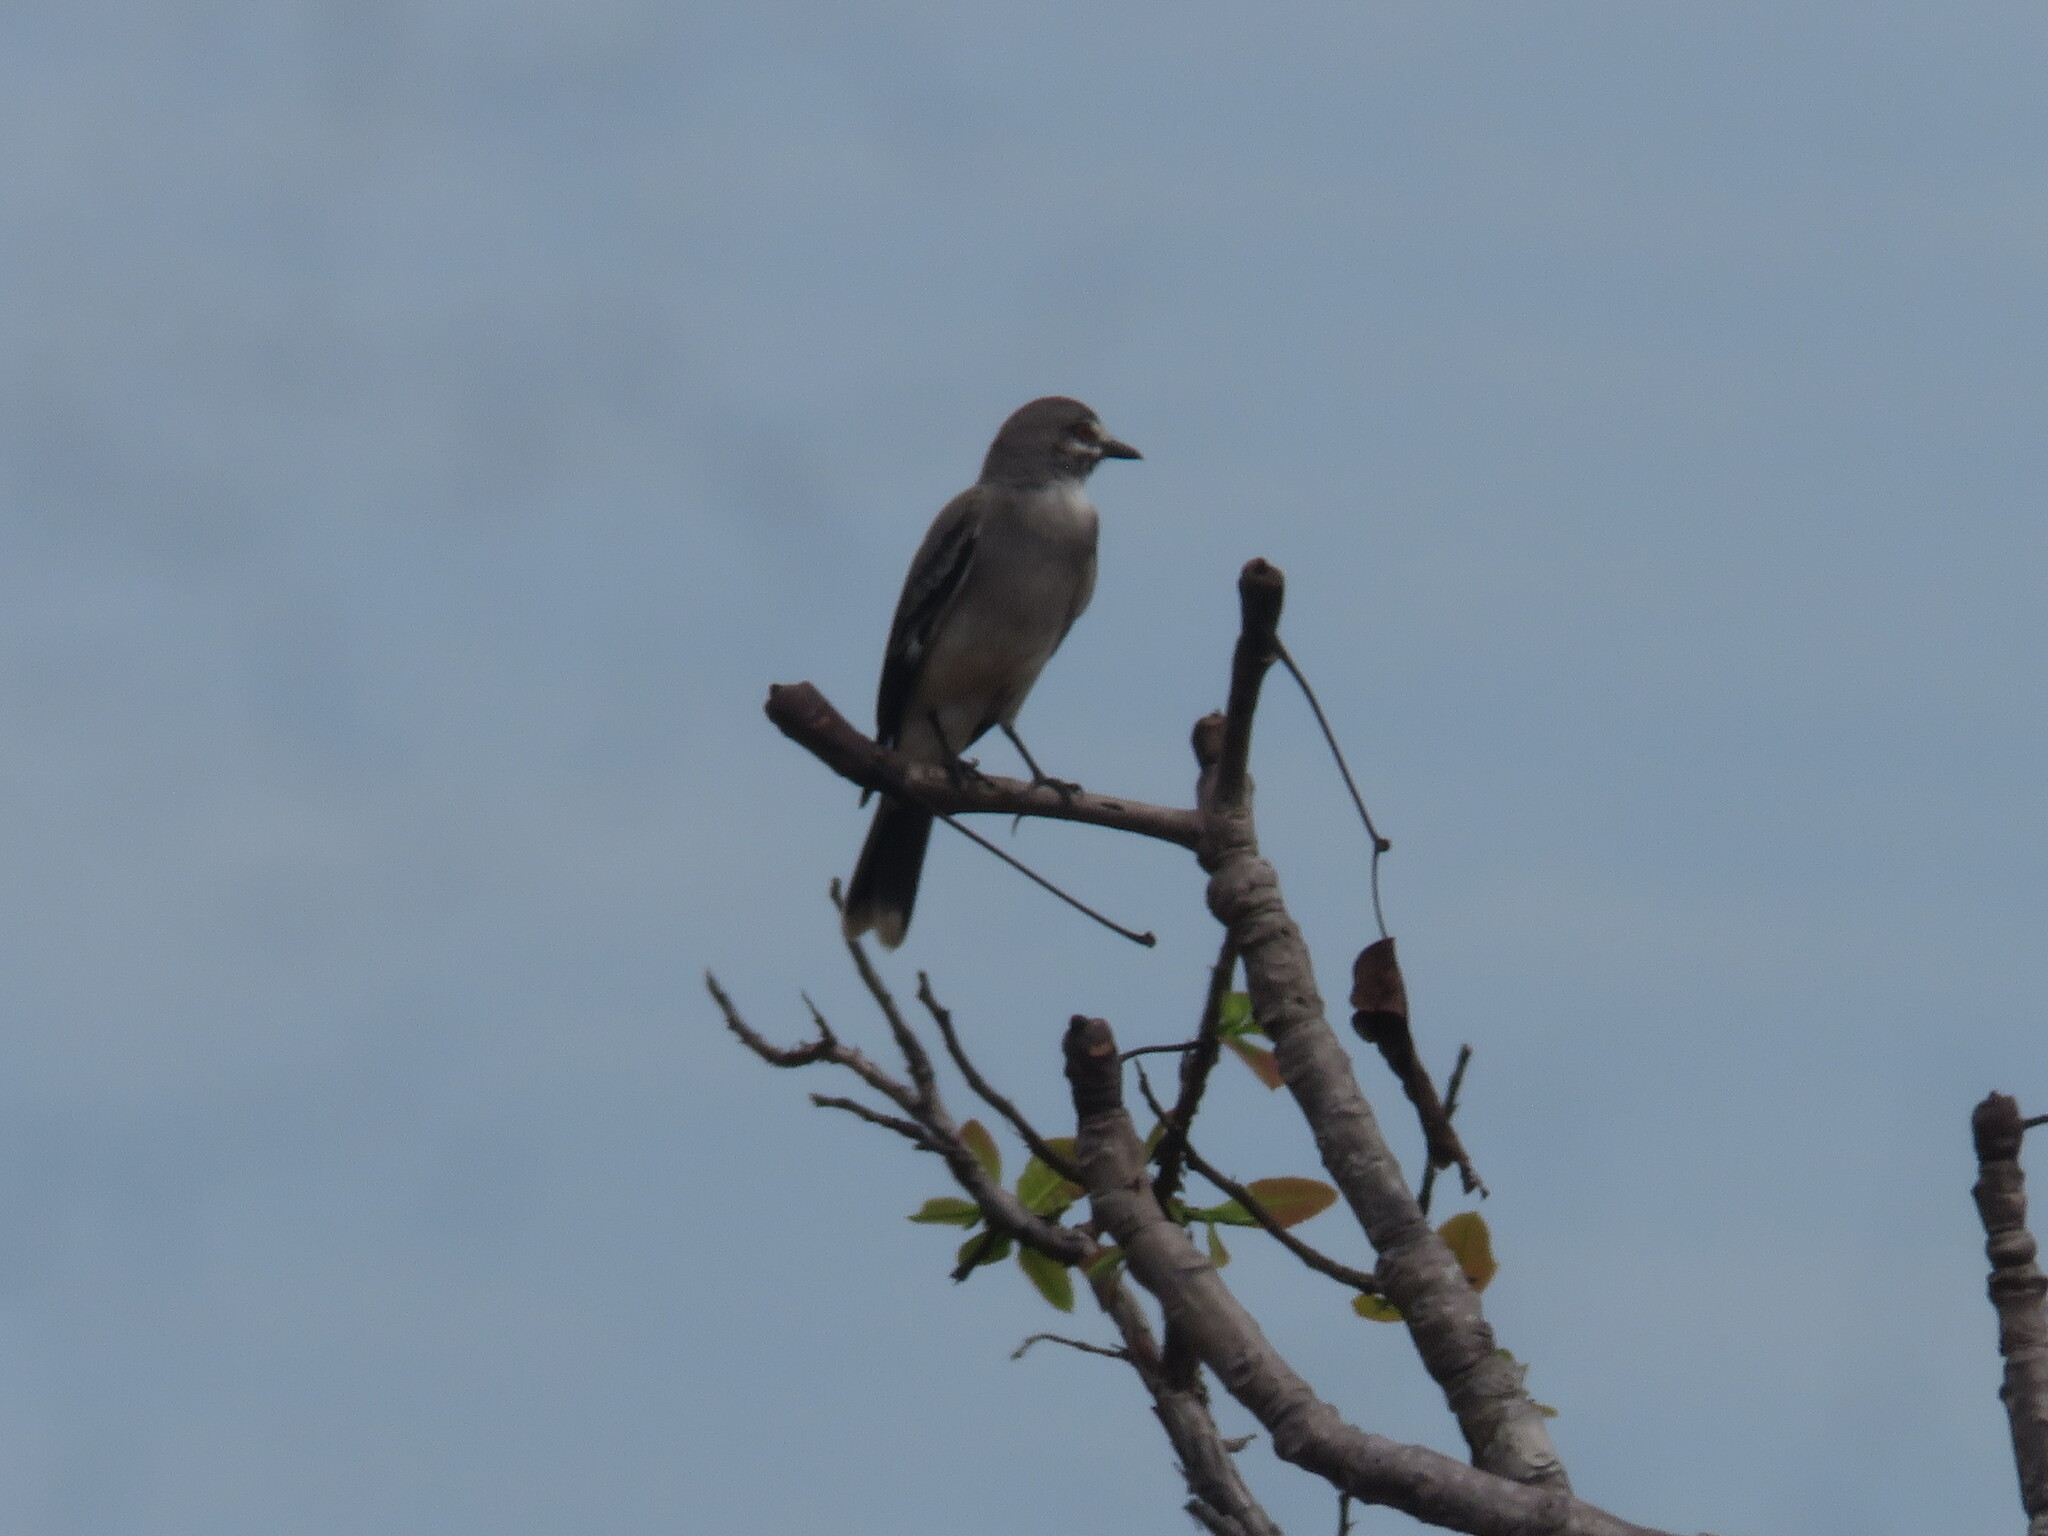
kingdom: Animalia
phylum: Chordata
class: Aves
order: Passeriformes
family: Tyrannidae
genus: Xolmis
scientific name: Xolmis cinereus
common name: Grey monjita
